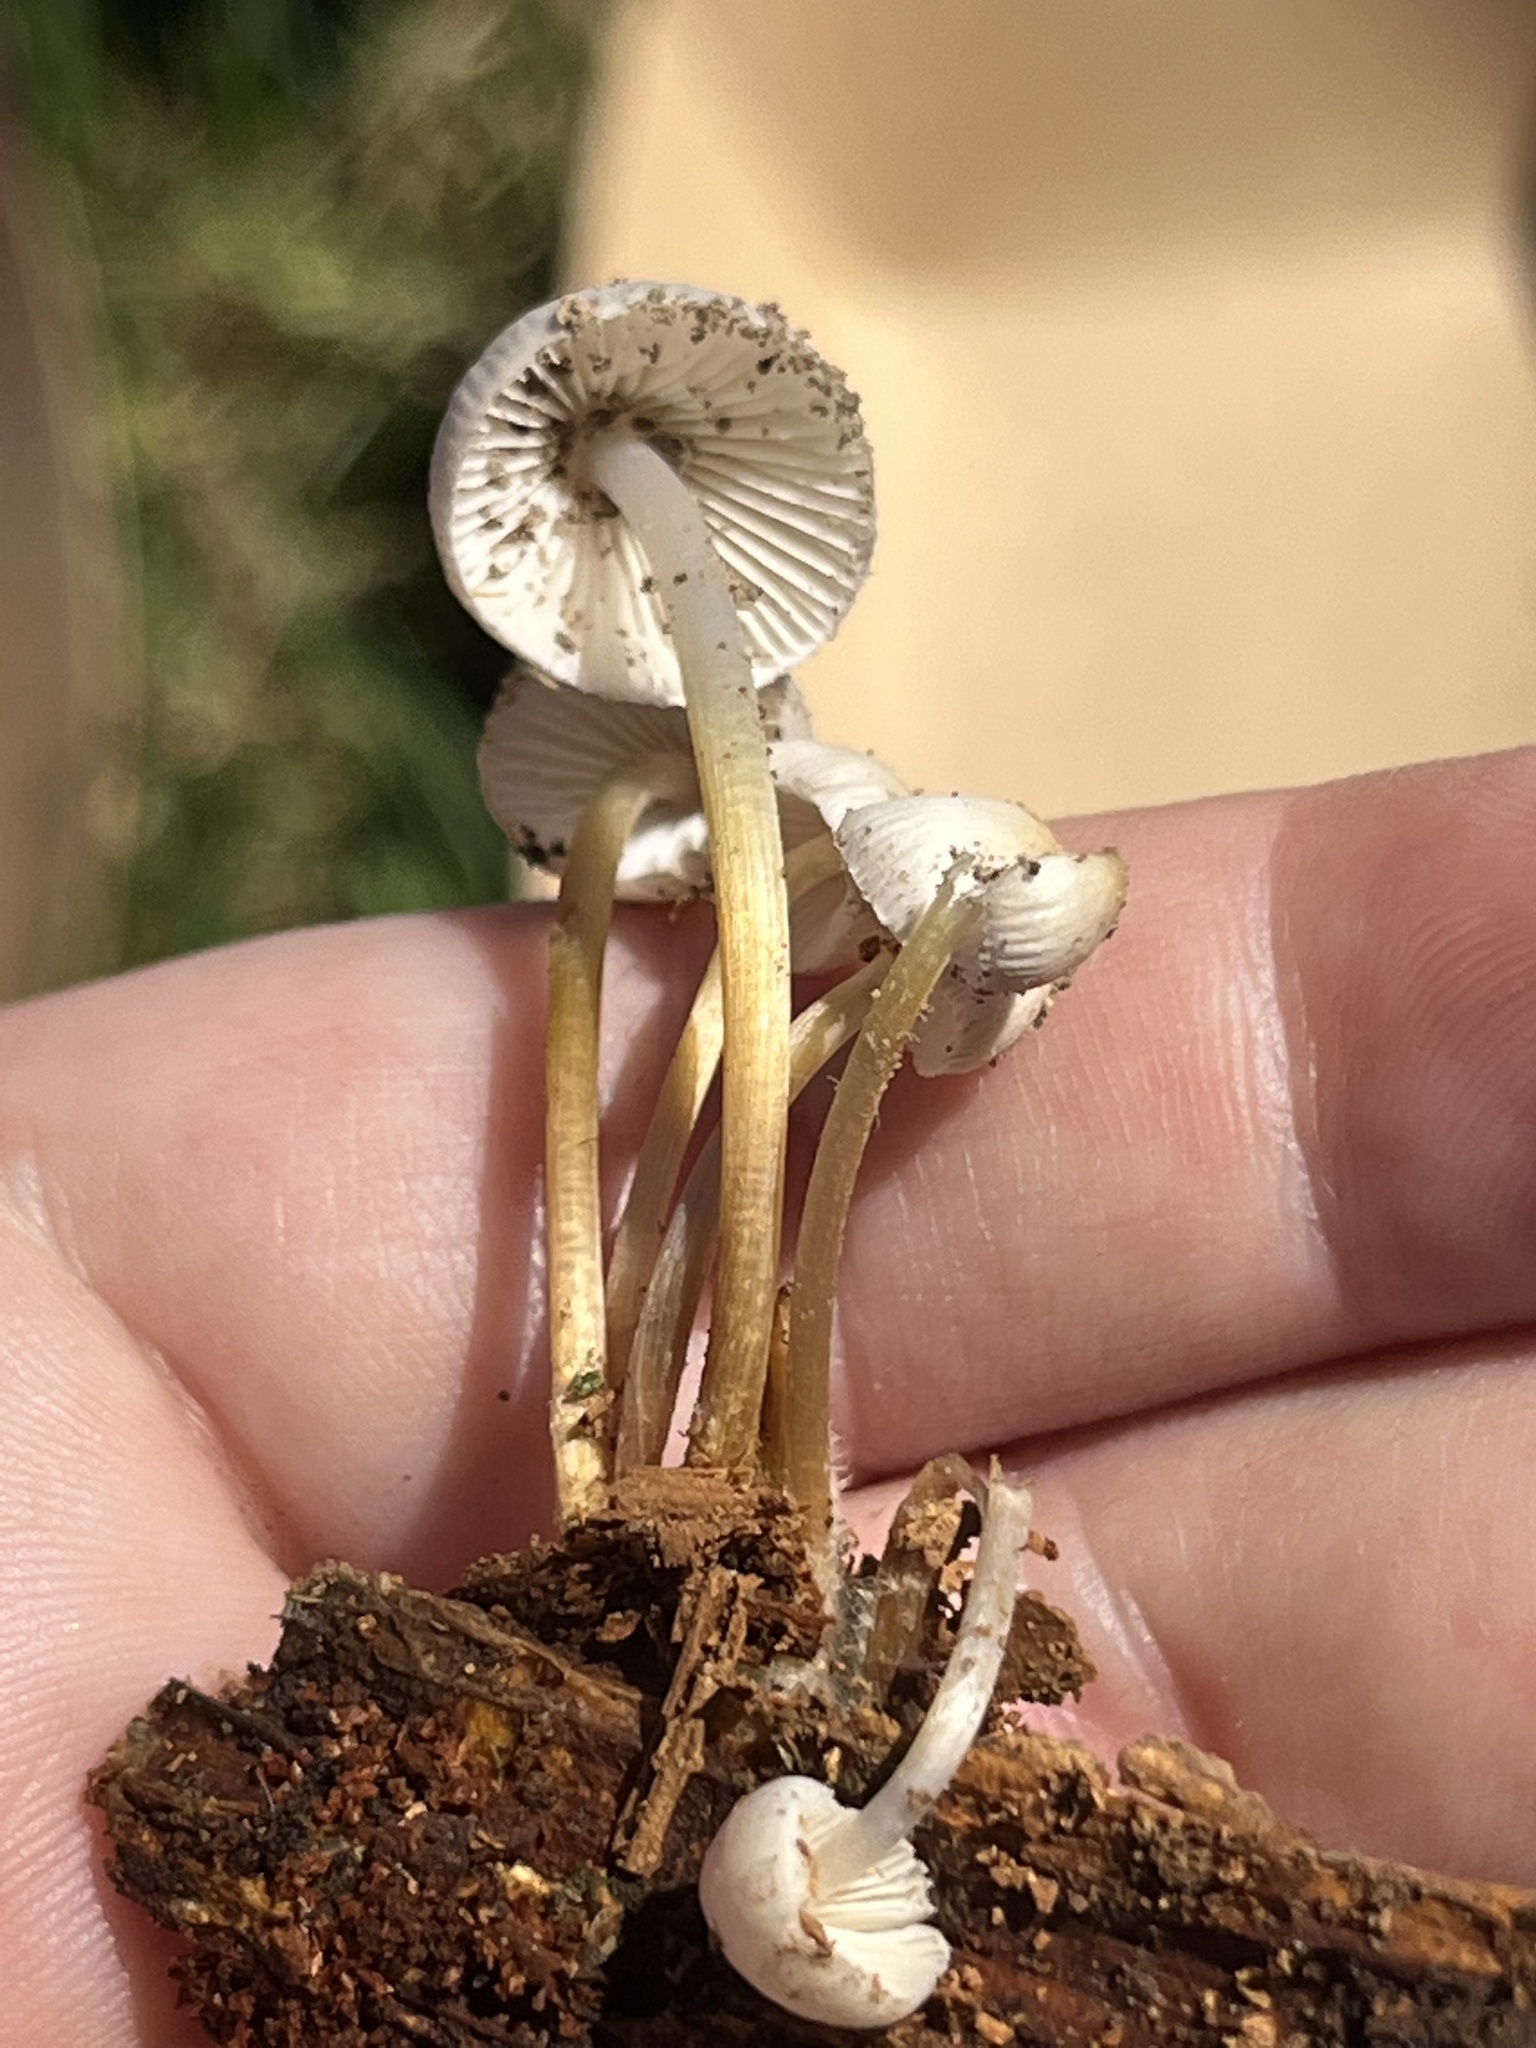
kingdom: Fungi
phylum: Basidiomycota
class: Agaricomycetes
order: Agaricales
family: Mycenaceae
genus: Mycena
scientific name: Mycena inclinata
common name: Clustered bonnet
